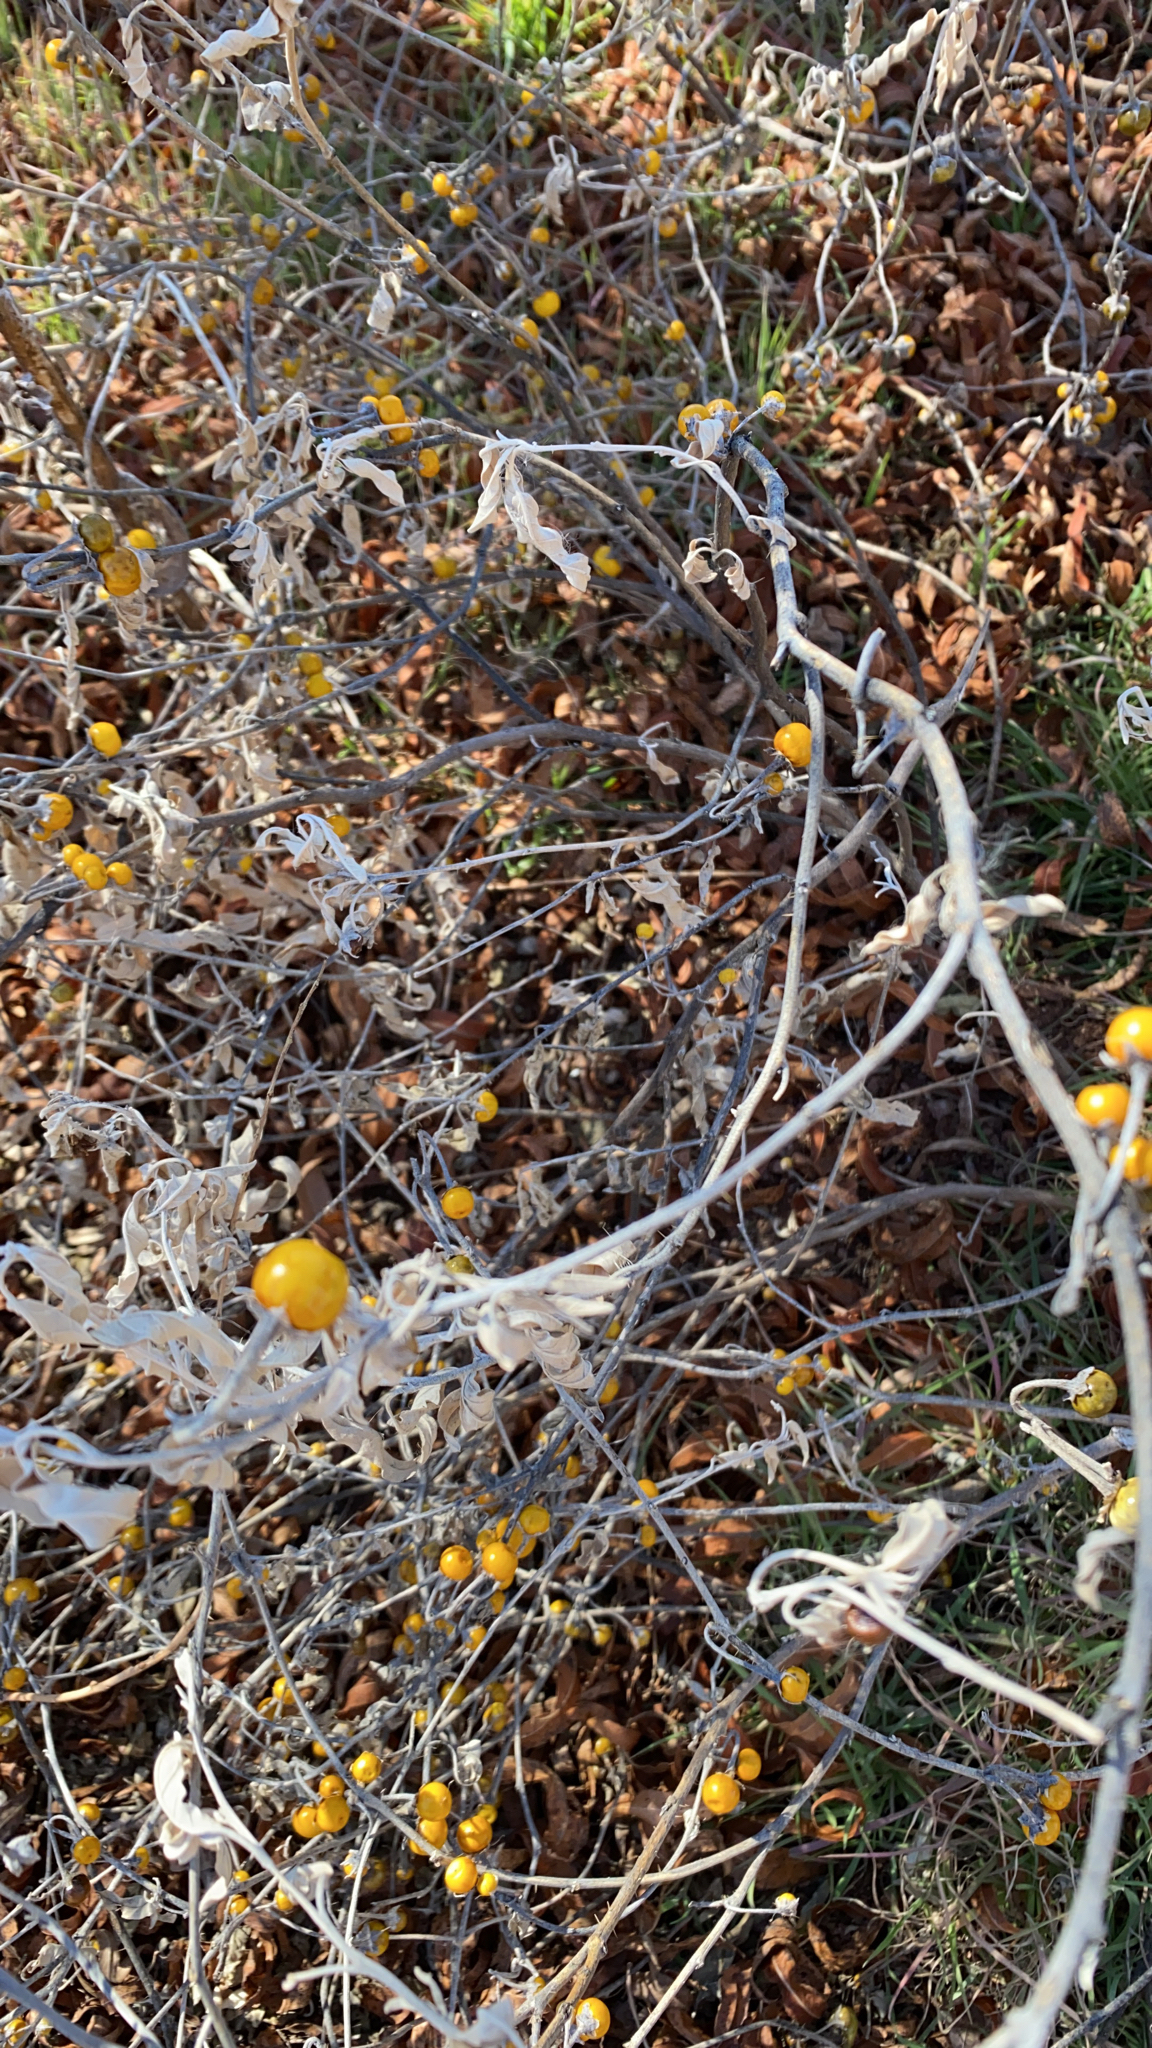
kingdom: Plantae
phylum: Tracheophyta
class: Magnoliopsida
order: Solanales
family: Solanaceae
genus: Solanum
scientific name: Solanum elaeagnifolium
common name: Silverleaf nightshade
